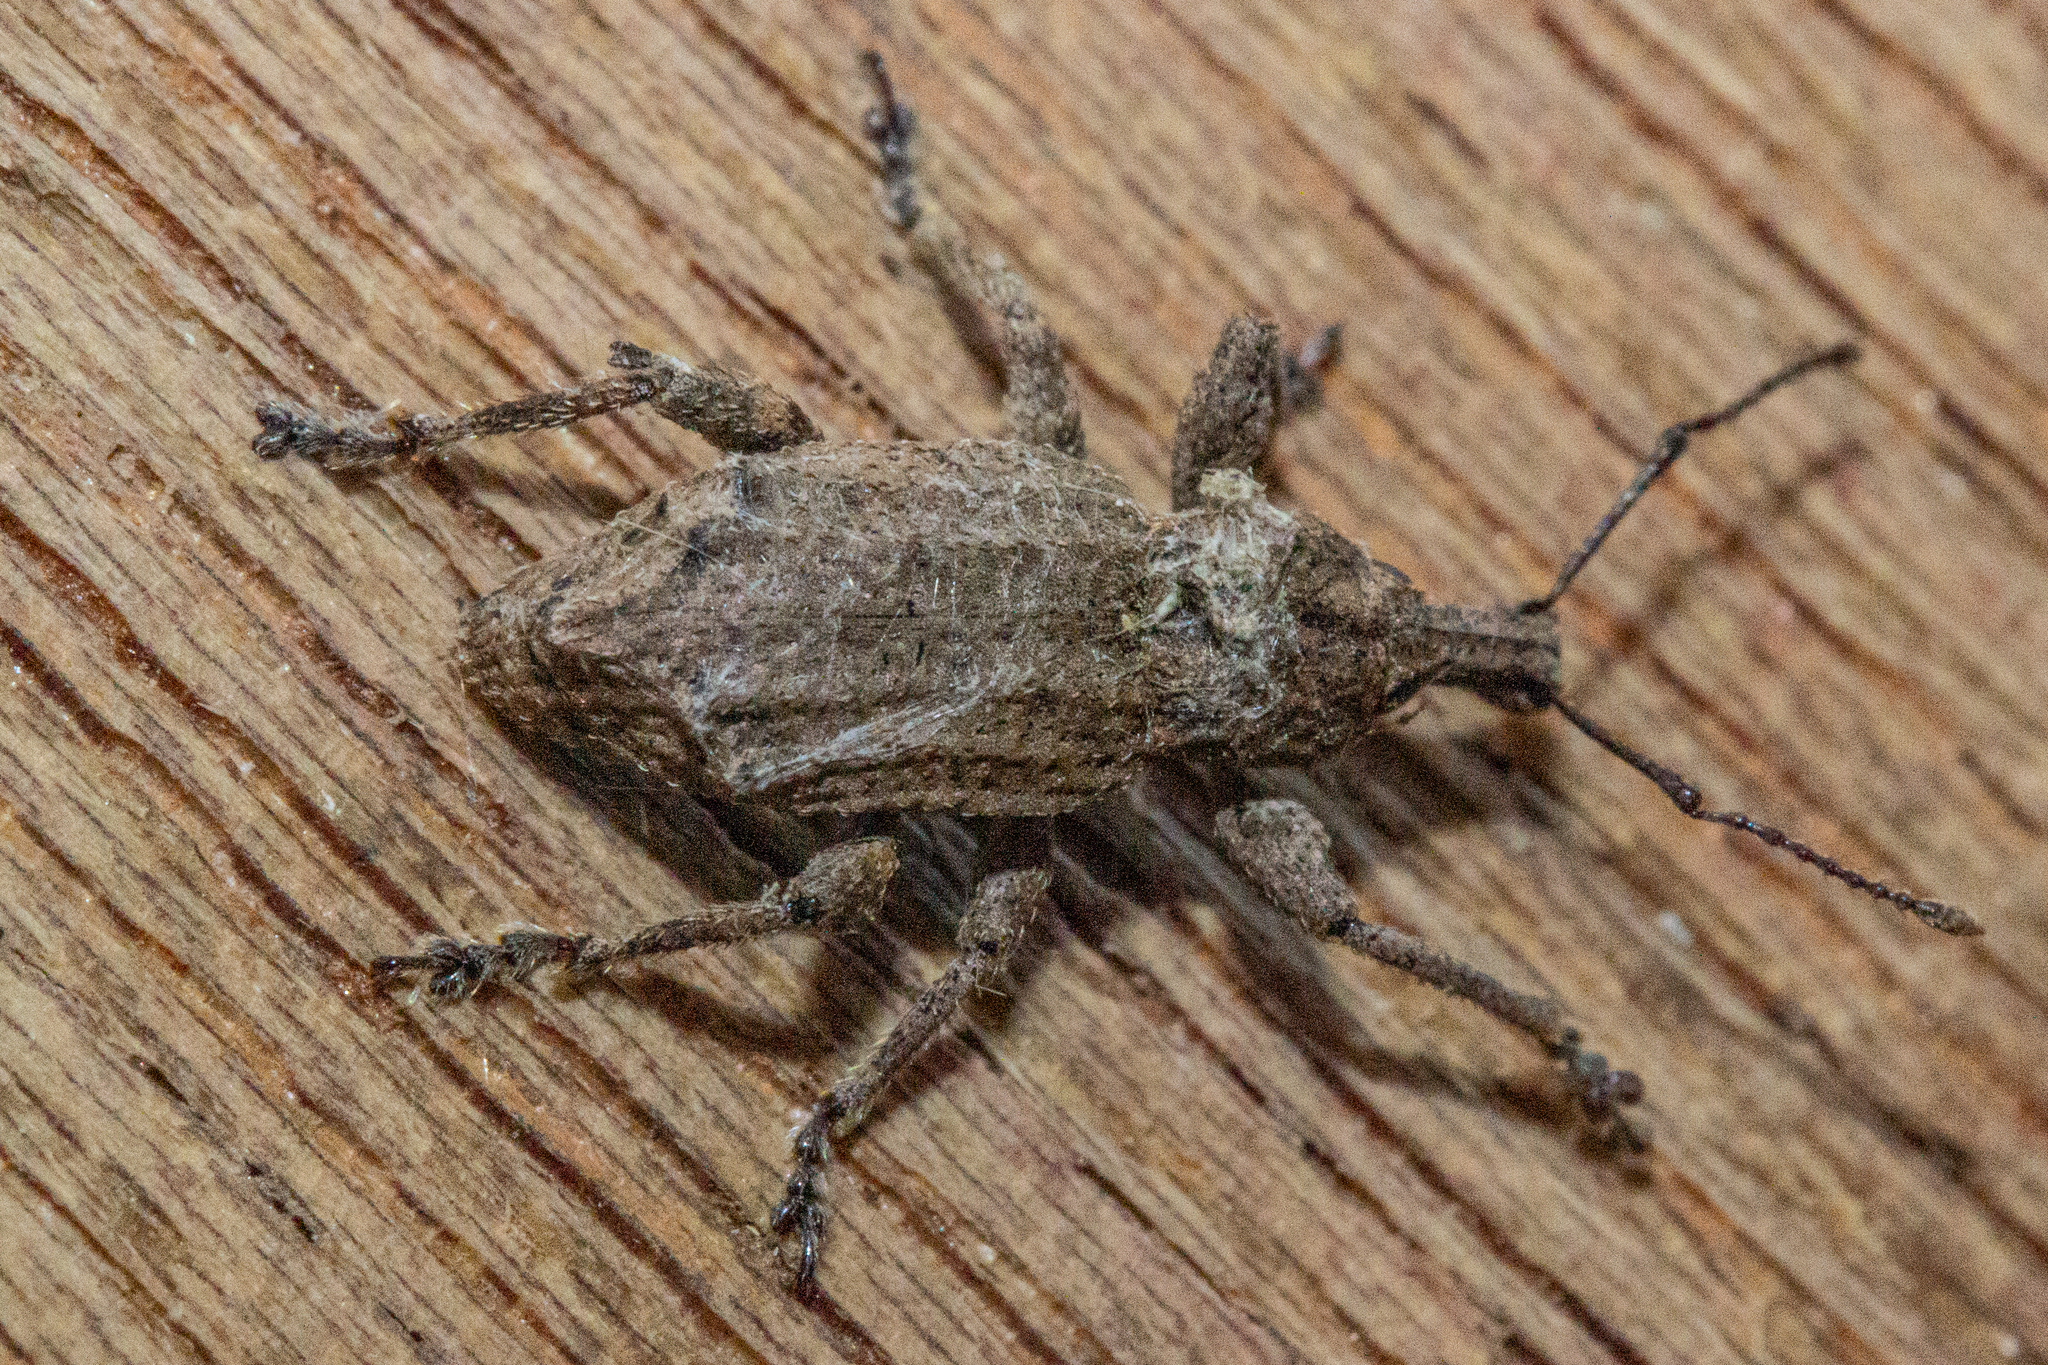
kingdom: Animalia
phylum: Arthropoda
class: Insecta
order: Coleoptera
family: Curculionidae
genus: Chalepistes
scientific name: Chalepistes rhesus
